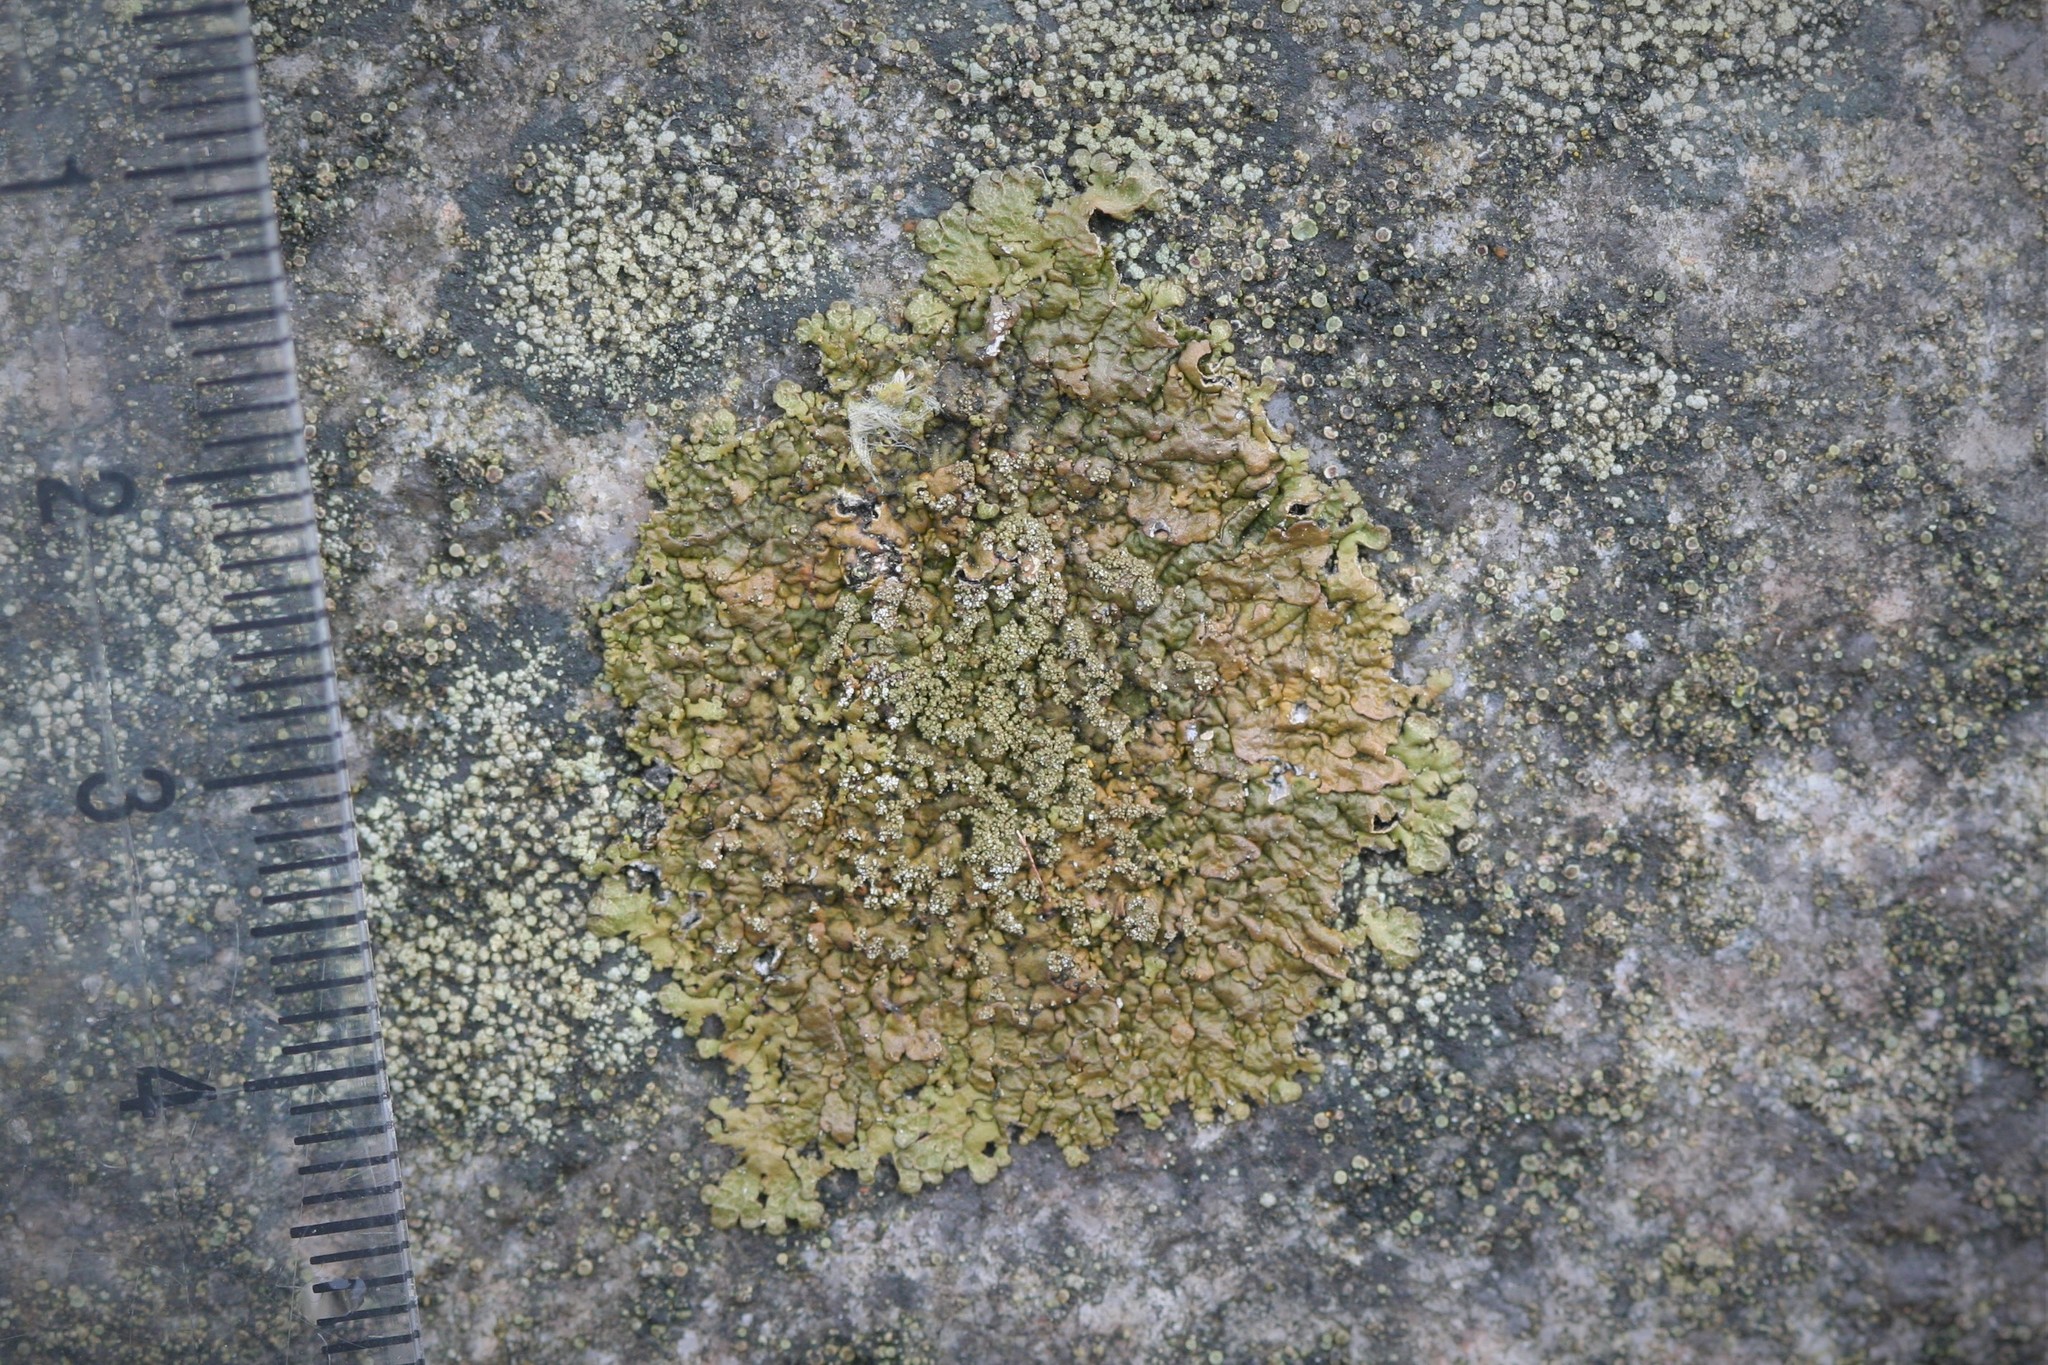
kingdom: Fungi
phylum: Ascomycota
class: Lecanoromycetes
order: Lecanorales
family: Parmeliaceae
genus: Xanthoparmelia
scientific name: Xanthoparmelia loxodes
